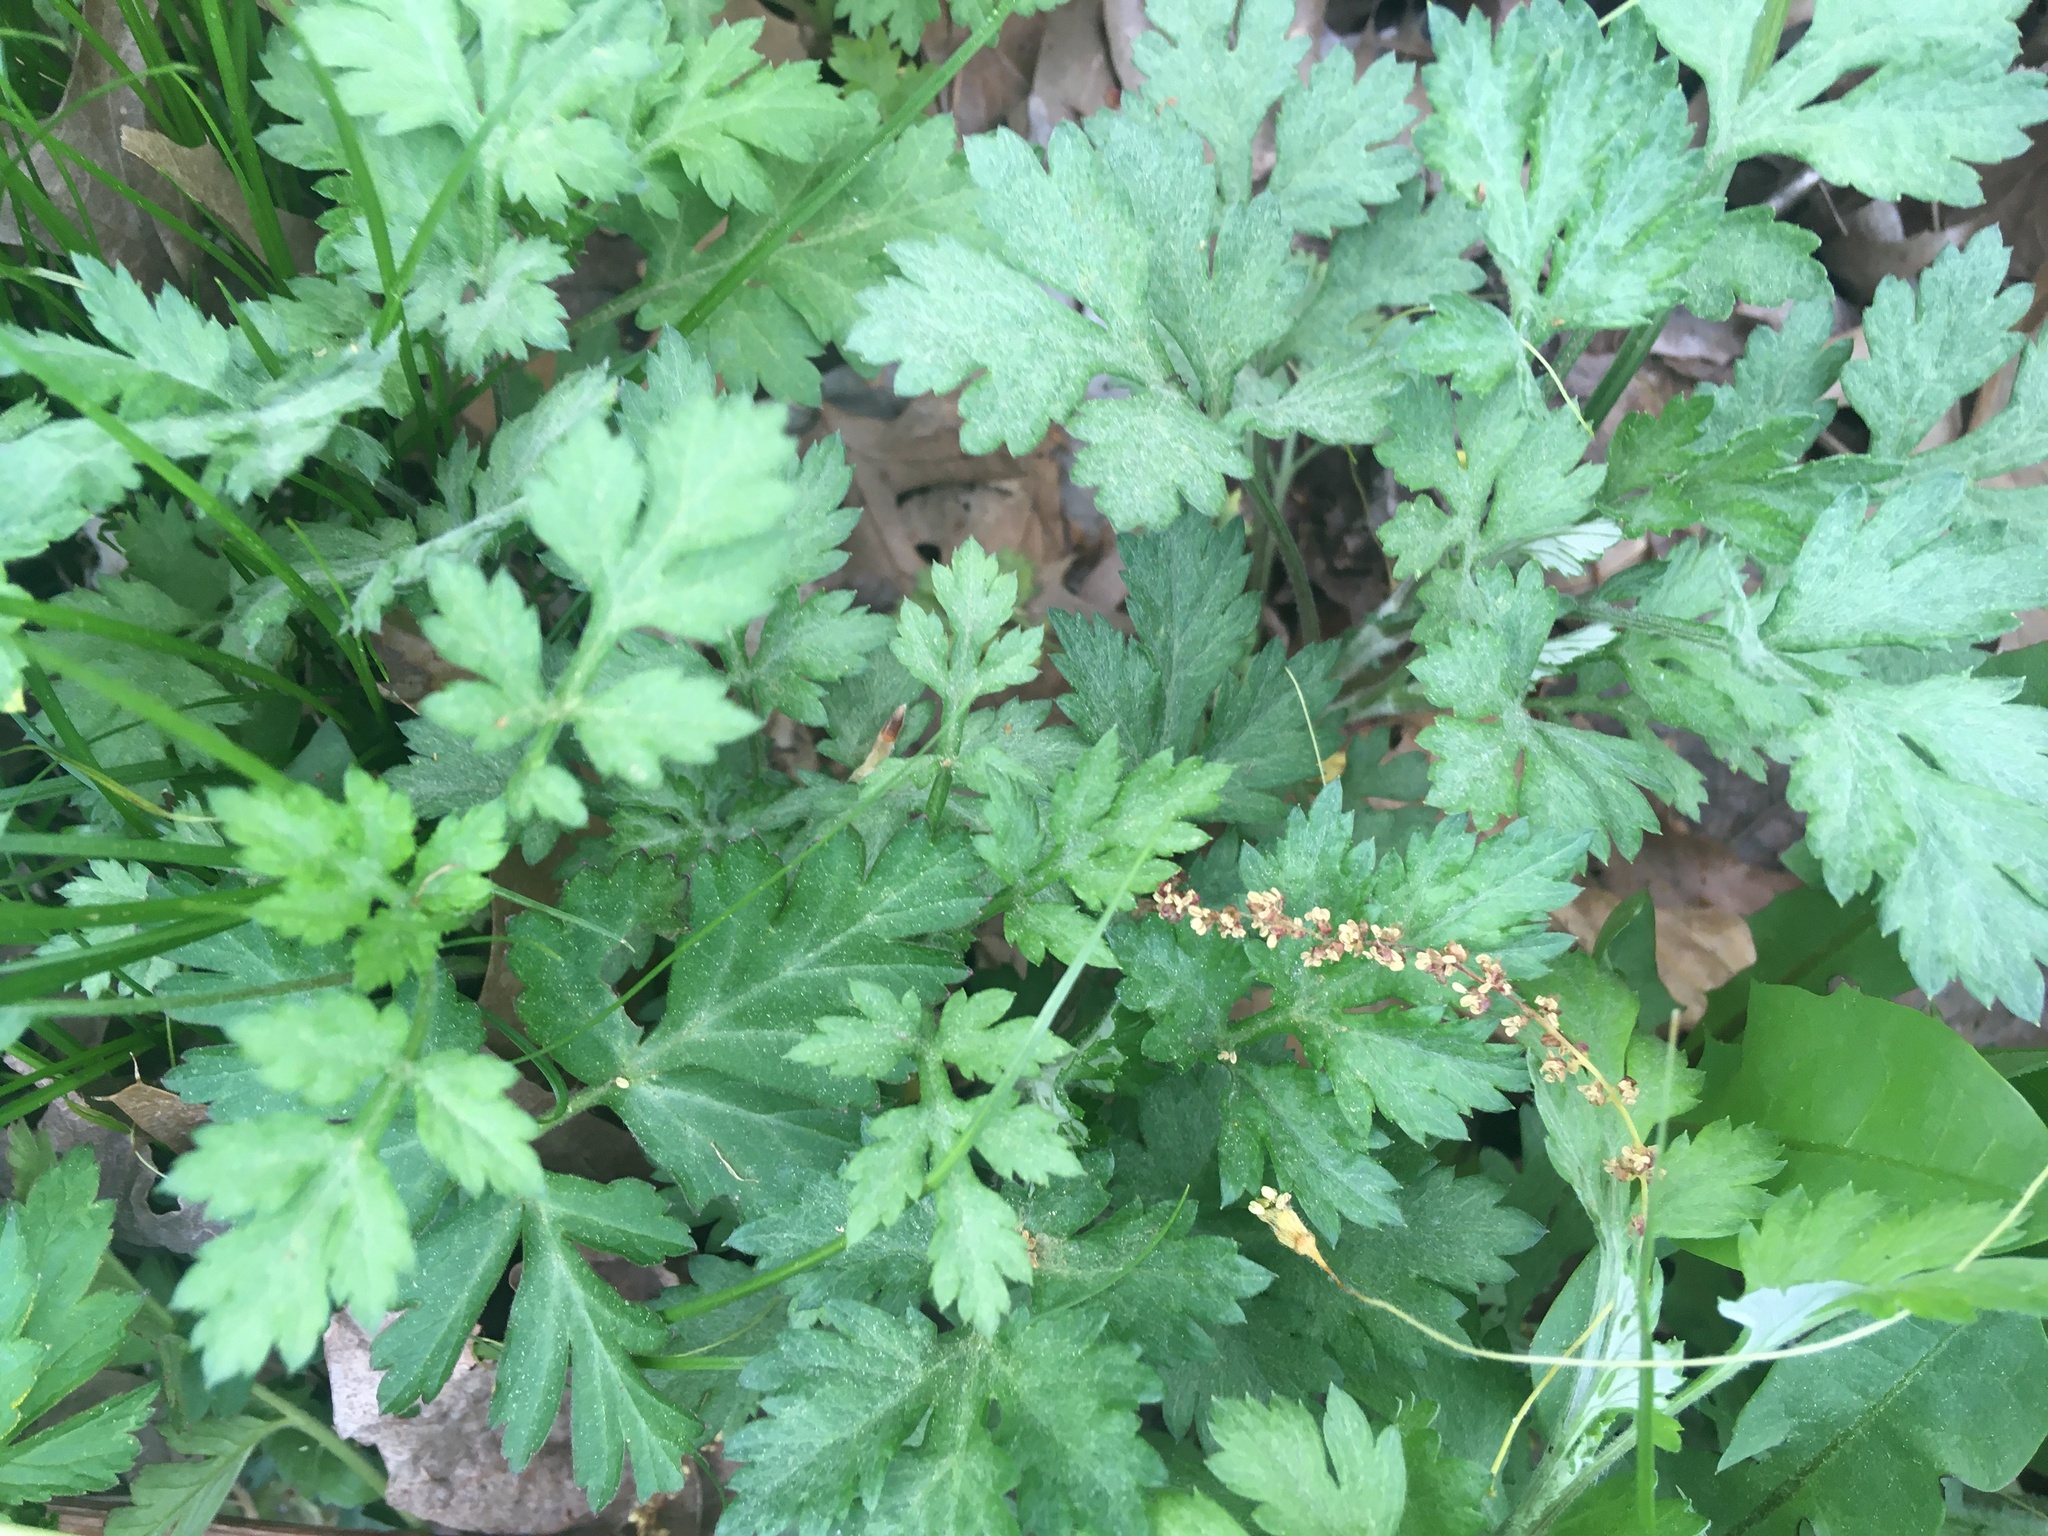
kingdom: Plantae
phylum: Tracheophyta
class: Magnoliopsida
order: Asterales
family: Asteraceae
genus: Artemisia
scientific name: Artemisia vulgaris
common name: Mugwort
